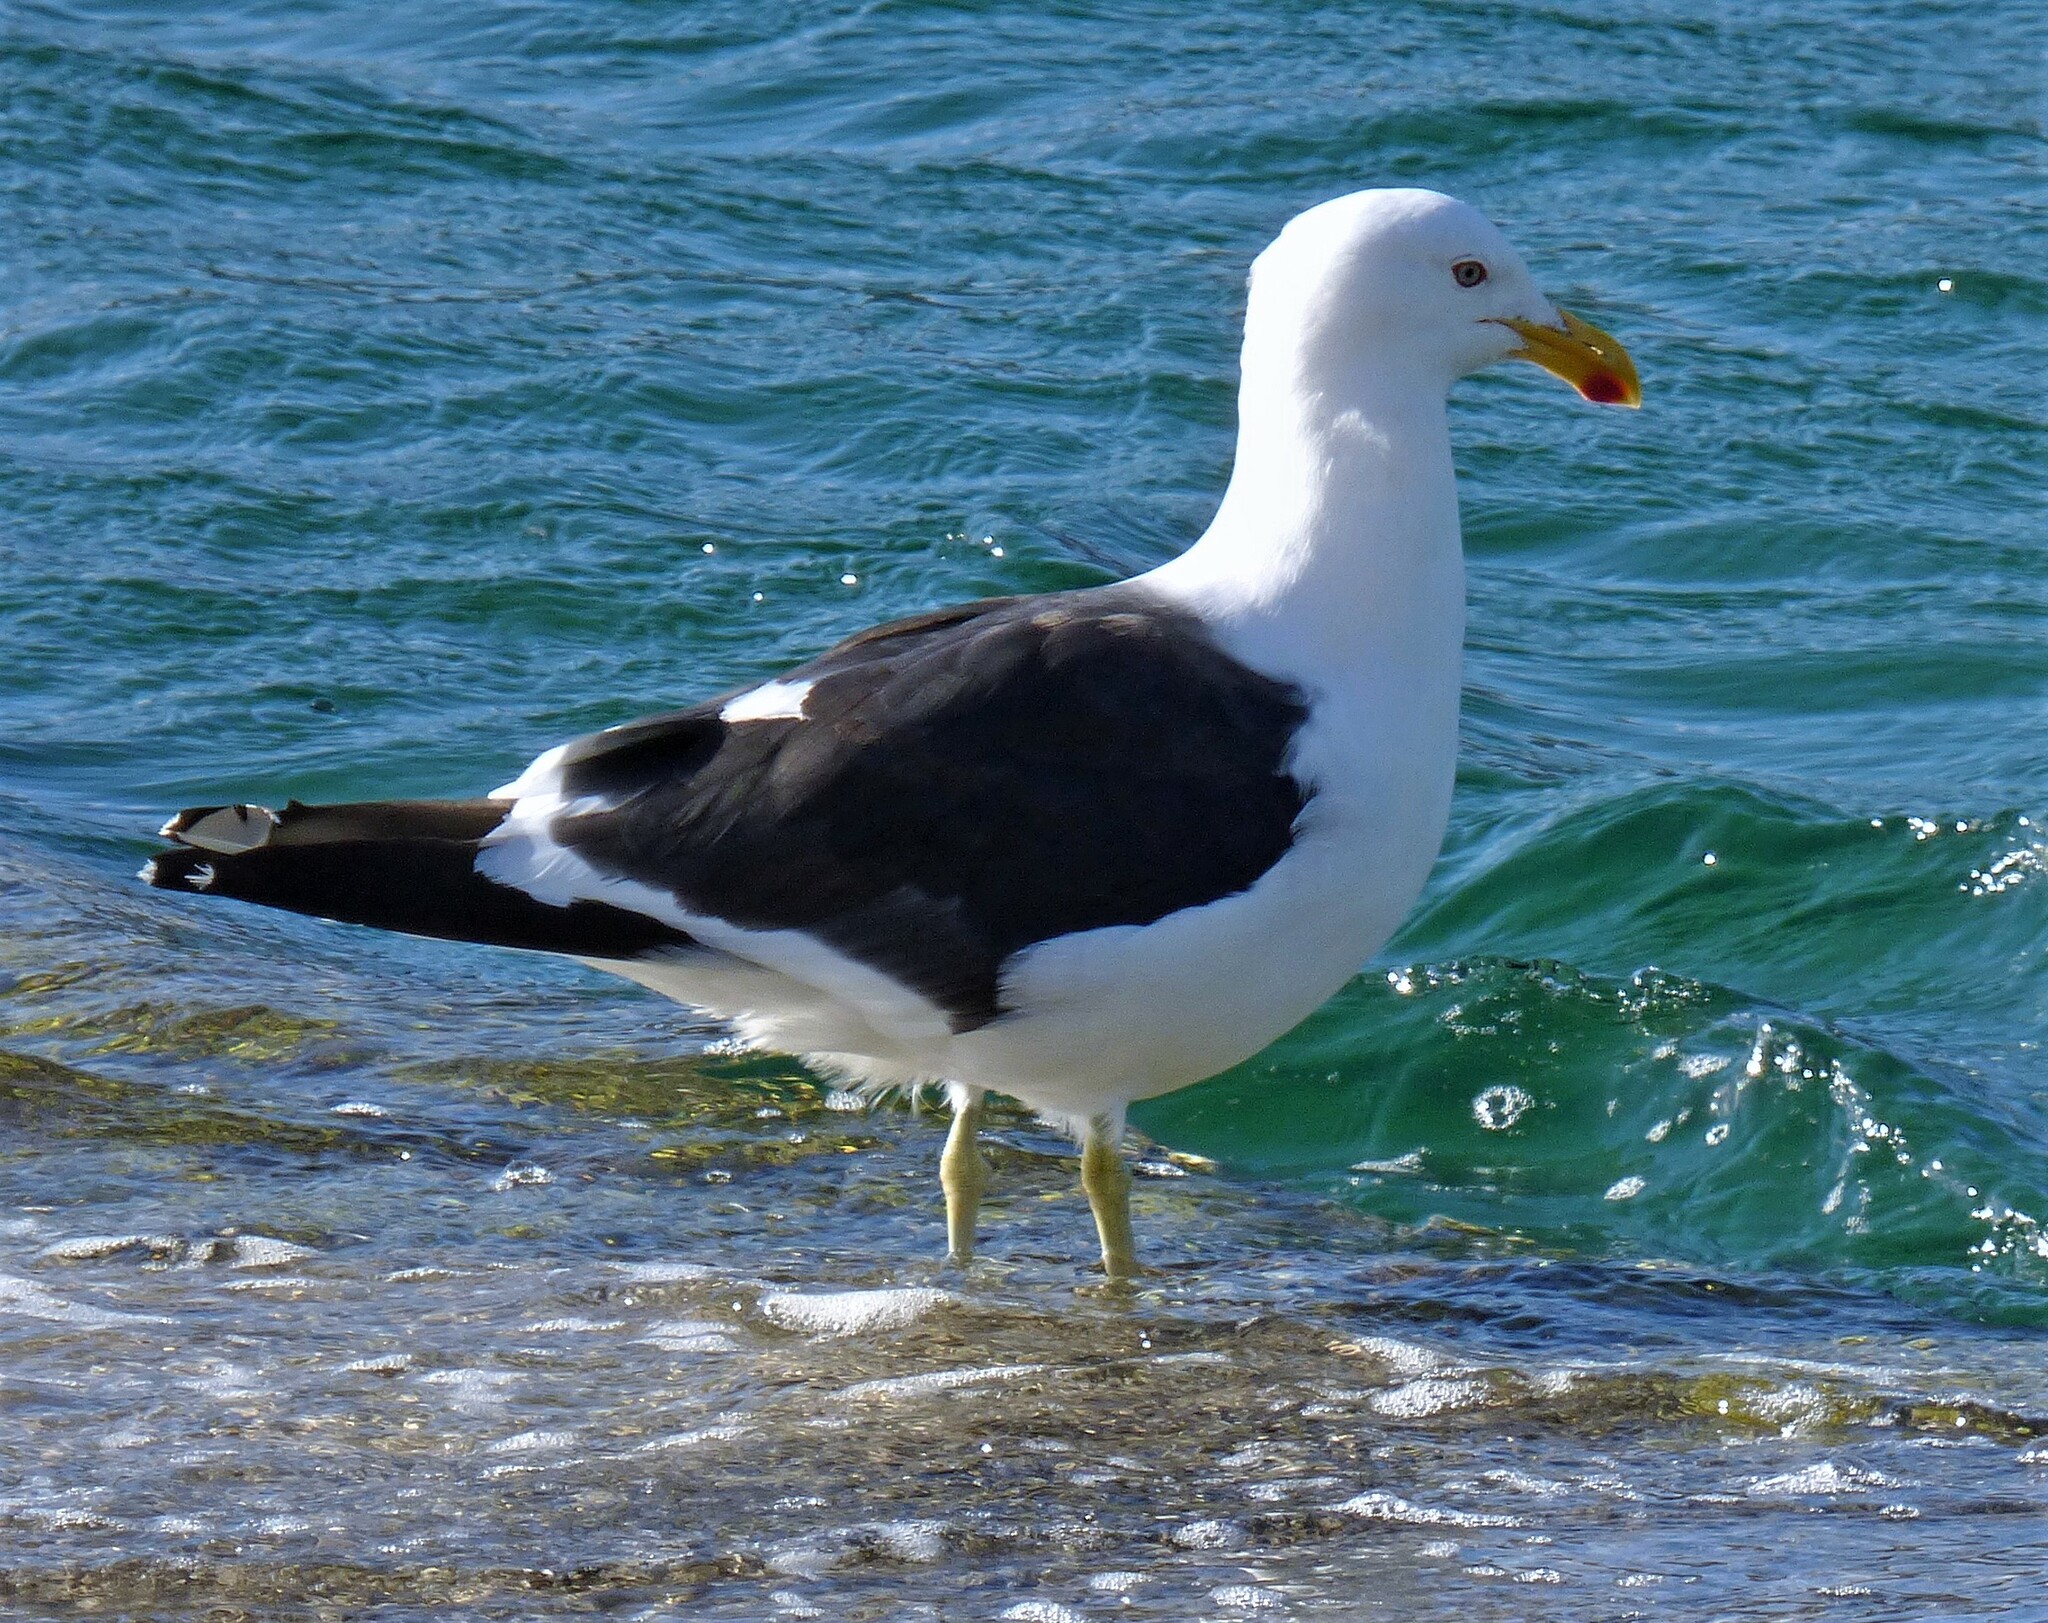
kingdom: Animalia
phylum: Chordata
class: Aves
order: Charadriiformes
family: Laridae
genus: Larus
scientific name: Larus dominicanus
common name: Kelp gull
